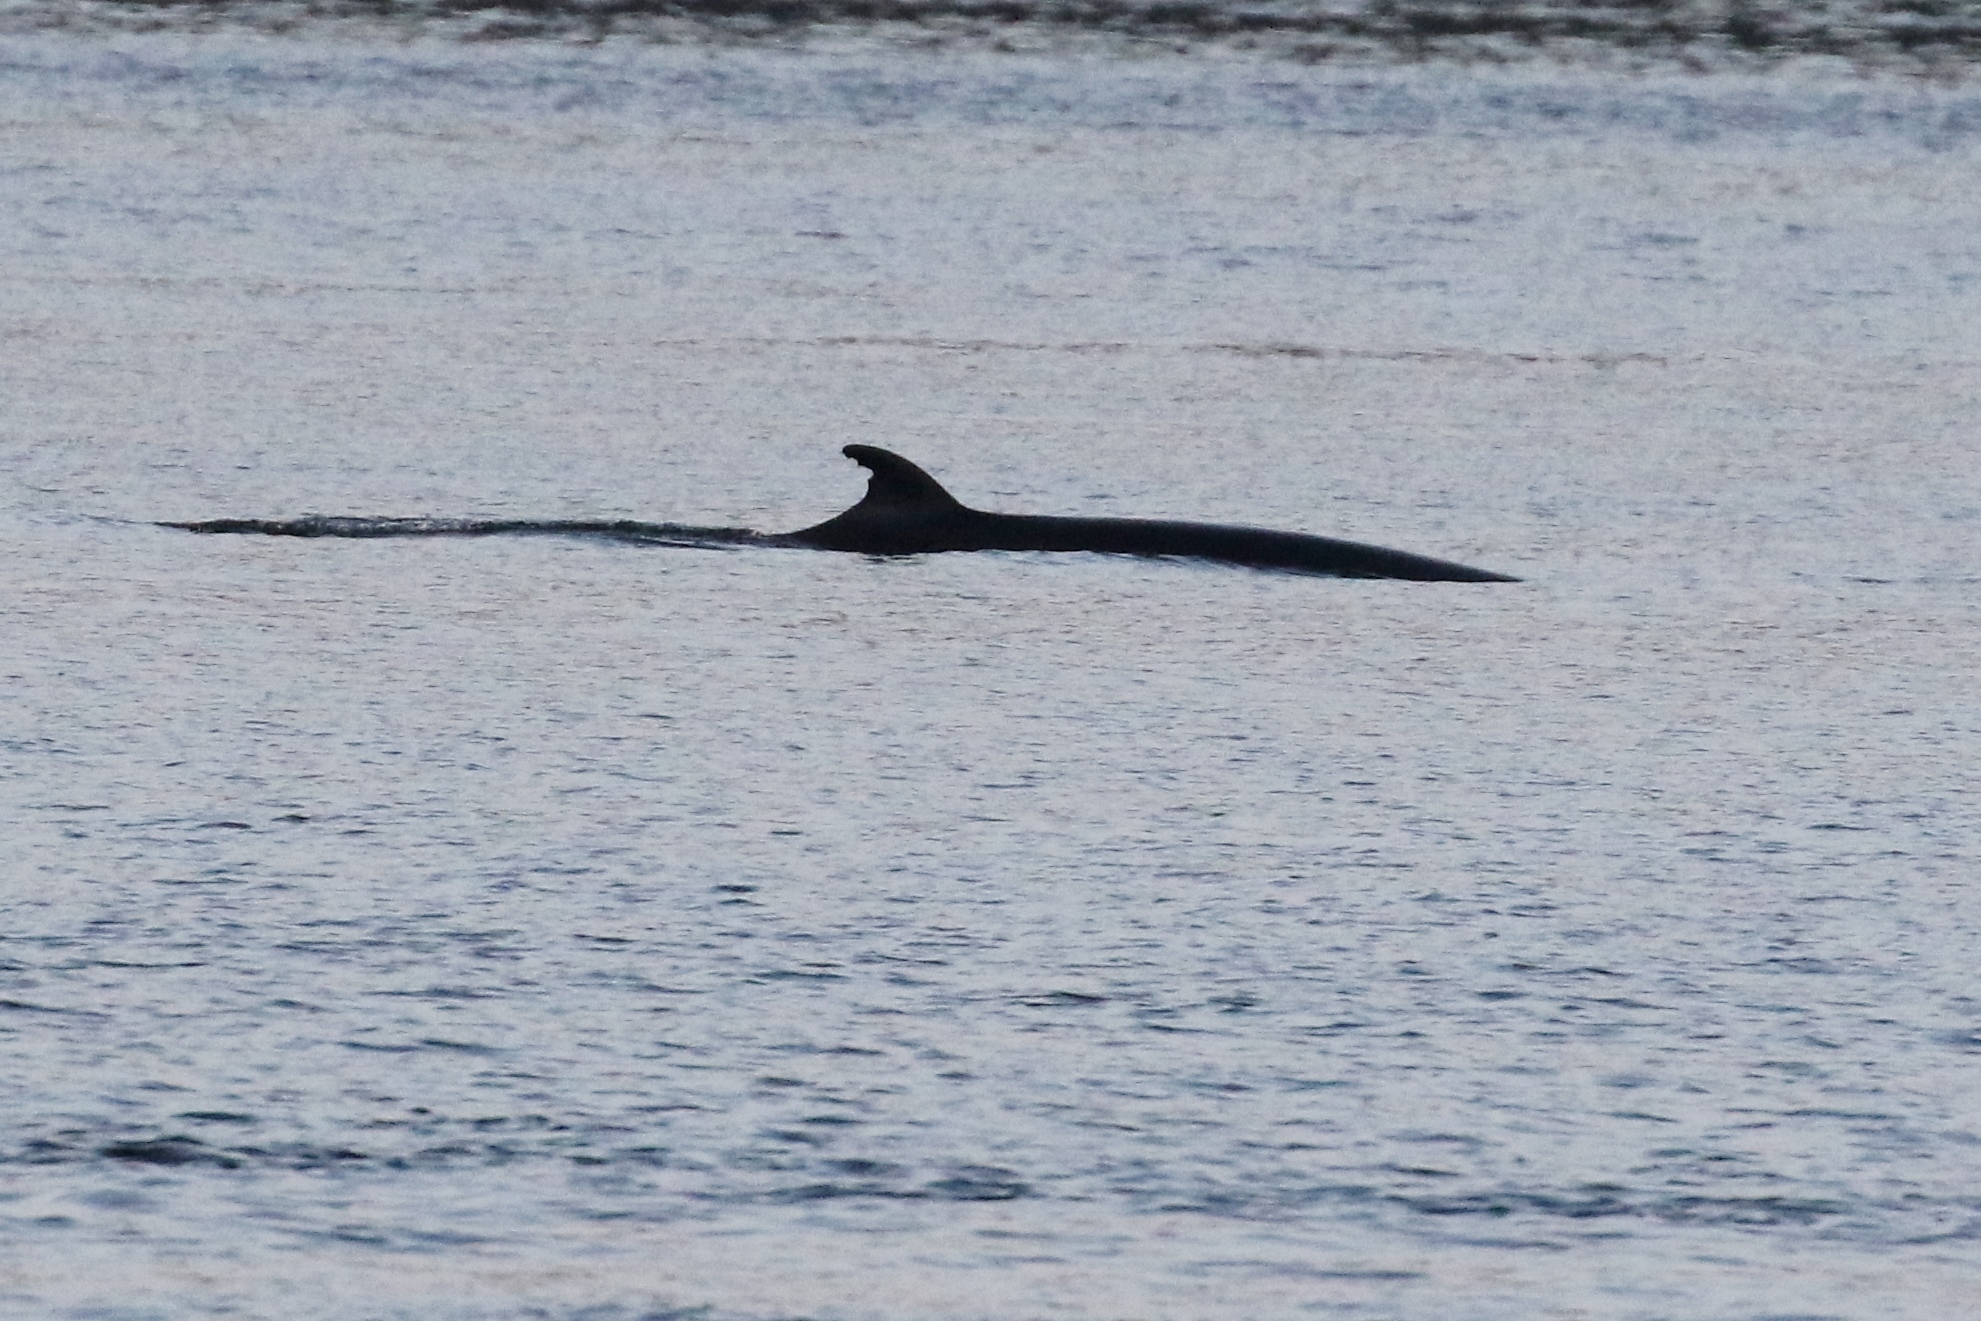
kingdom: Animalia
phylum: Chordata
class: Mammalia
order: Cetacea
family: Balaenopteridae
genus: Balaenoptera
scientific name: Balaenoptera acutorostrata
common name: Common minke whale
